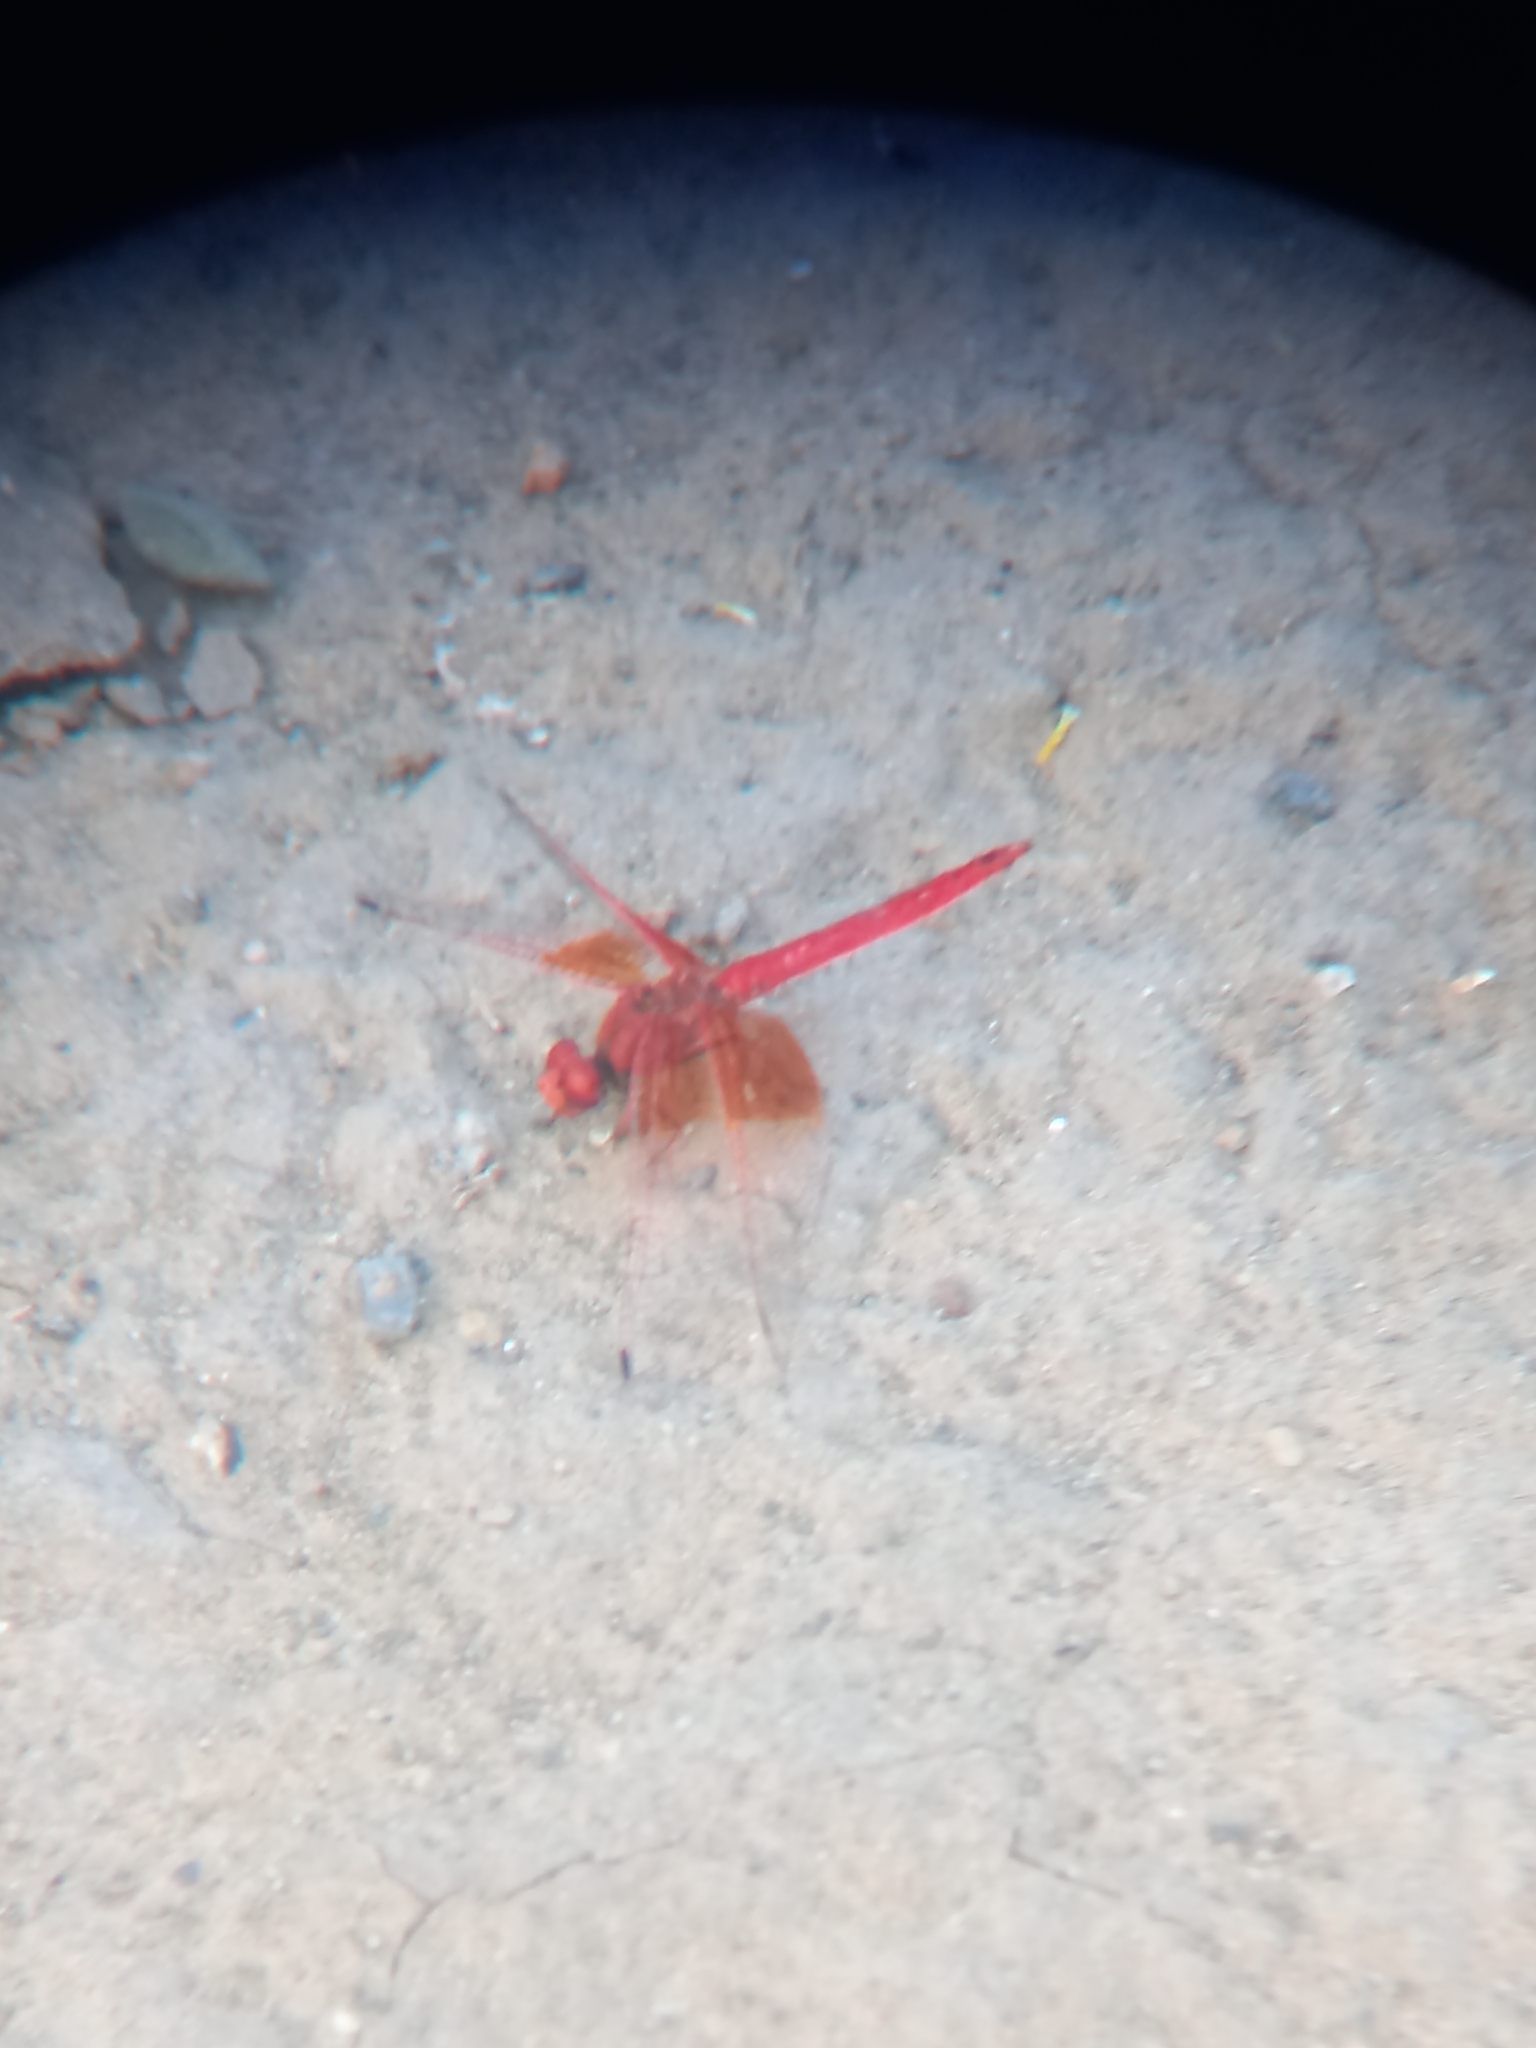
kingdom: Animalia
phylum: Arthropoda
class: Insecta
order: Odonata
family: Libellulidae
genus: Trithemis
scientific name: Trithemis kirbyi
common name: Kirby's dropwing
